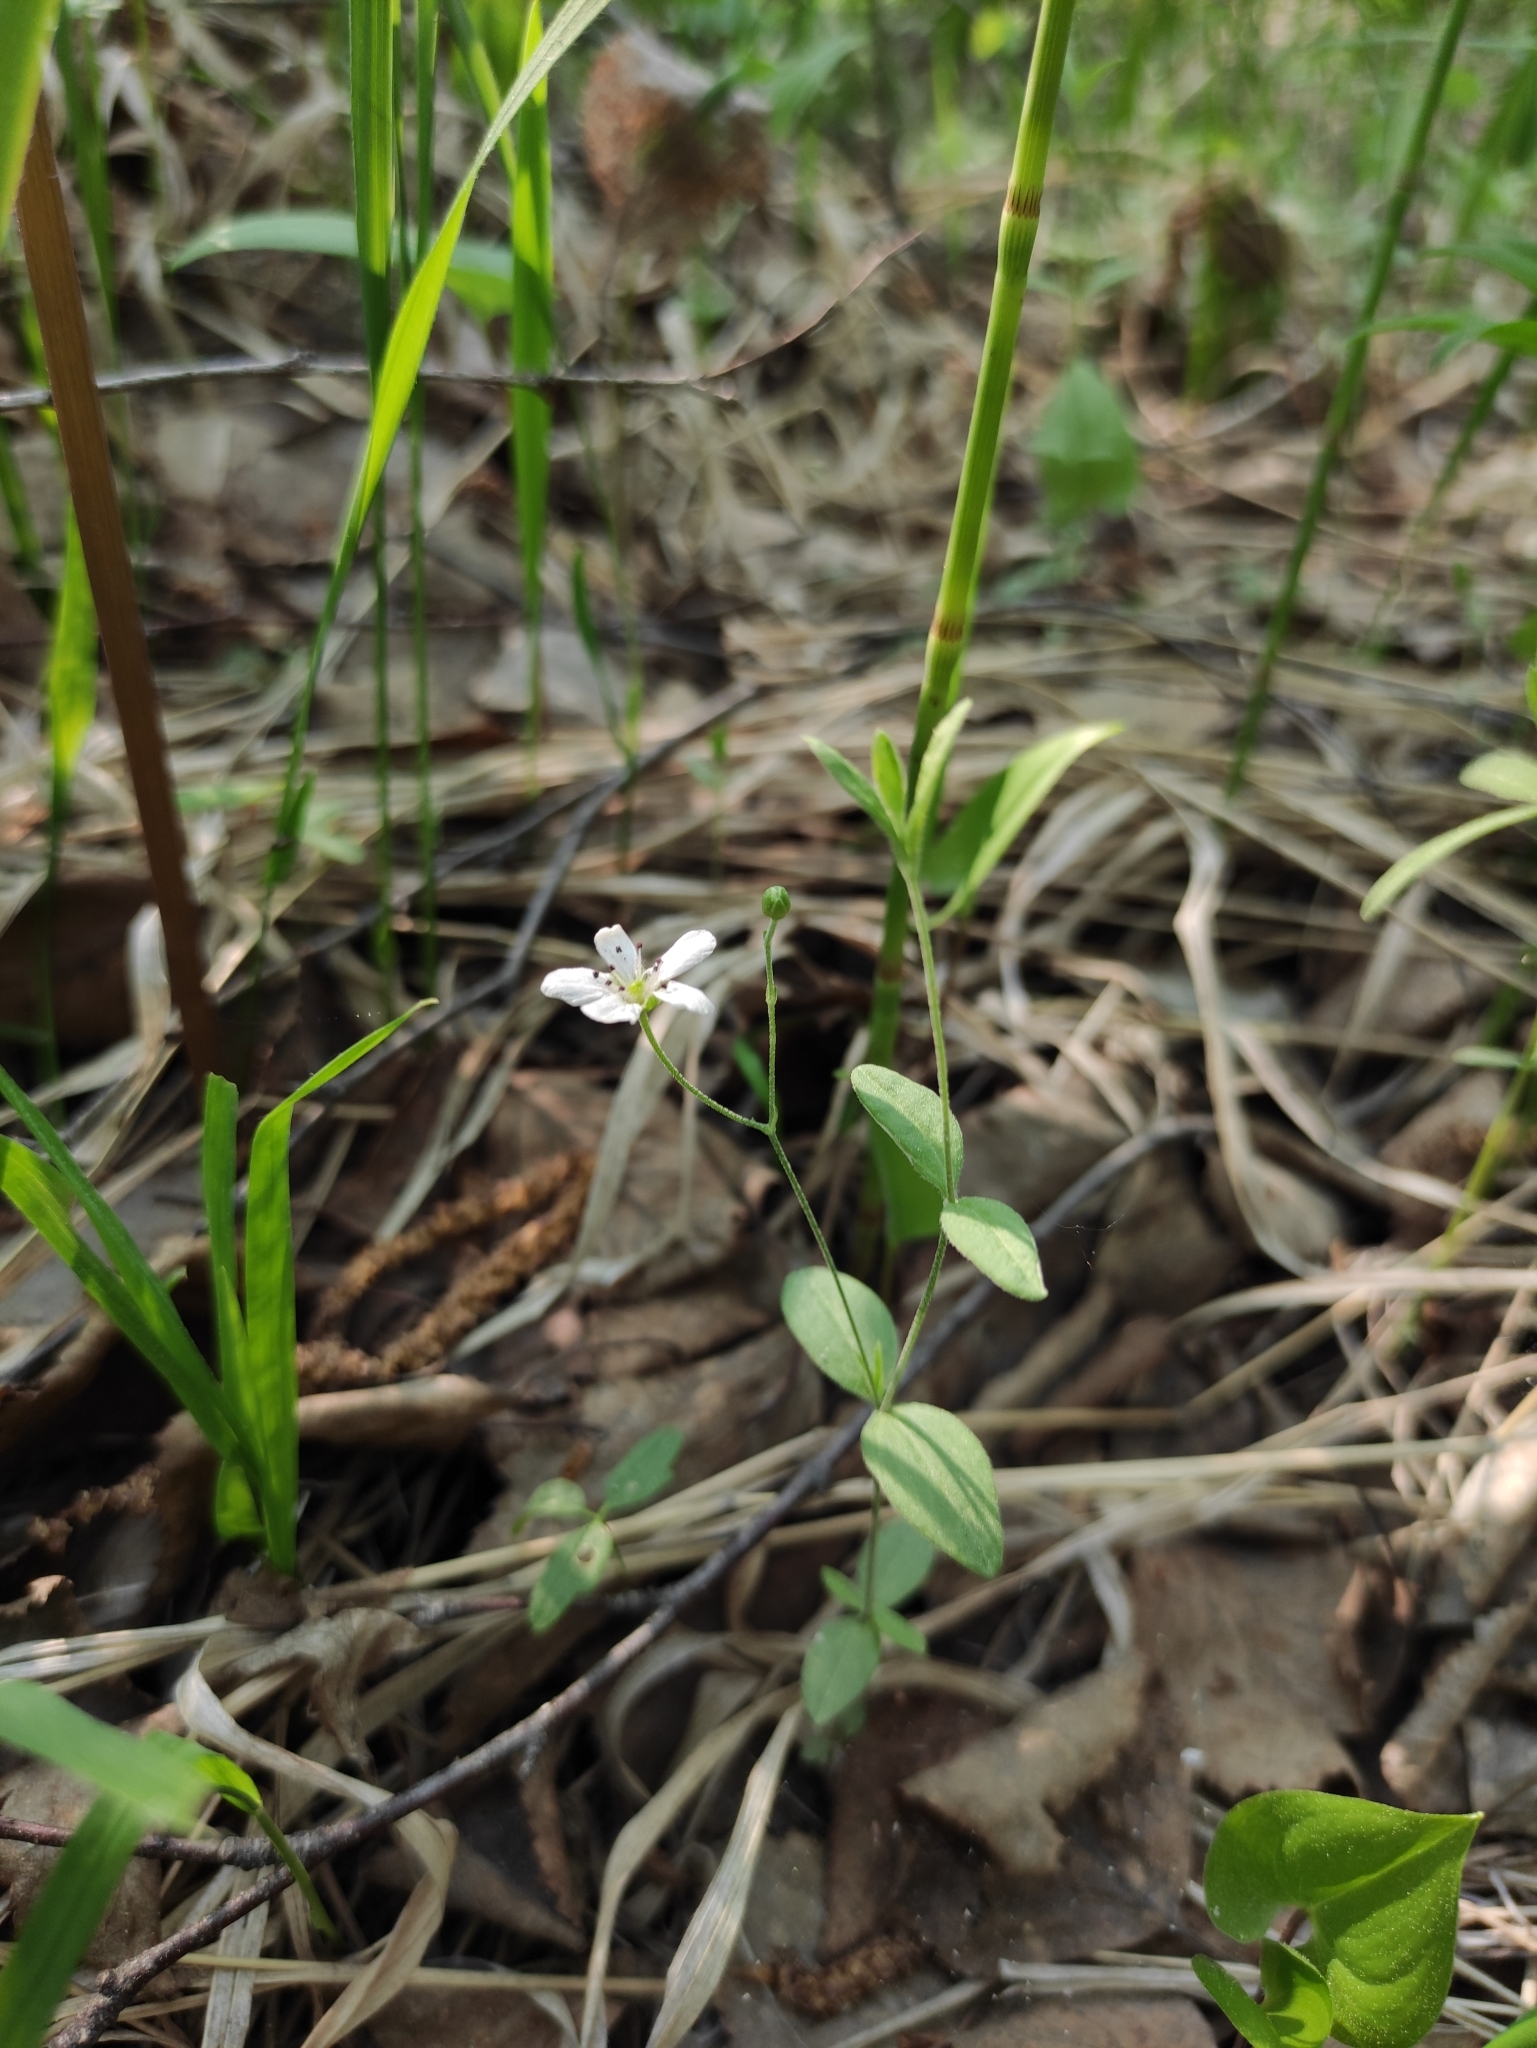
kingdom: Plantae
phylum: Tracheophyta
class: Magnoliopsida
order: Caryophyllales
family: Caryophyllaceae
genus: Moehringia
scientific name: Moehringia lateriflora
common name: Blunt-leaved sandwort
